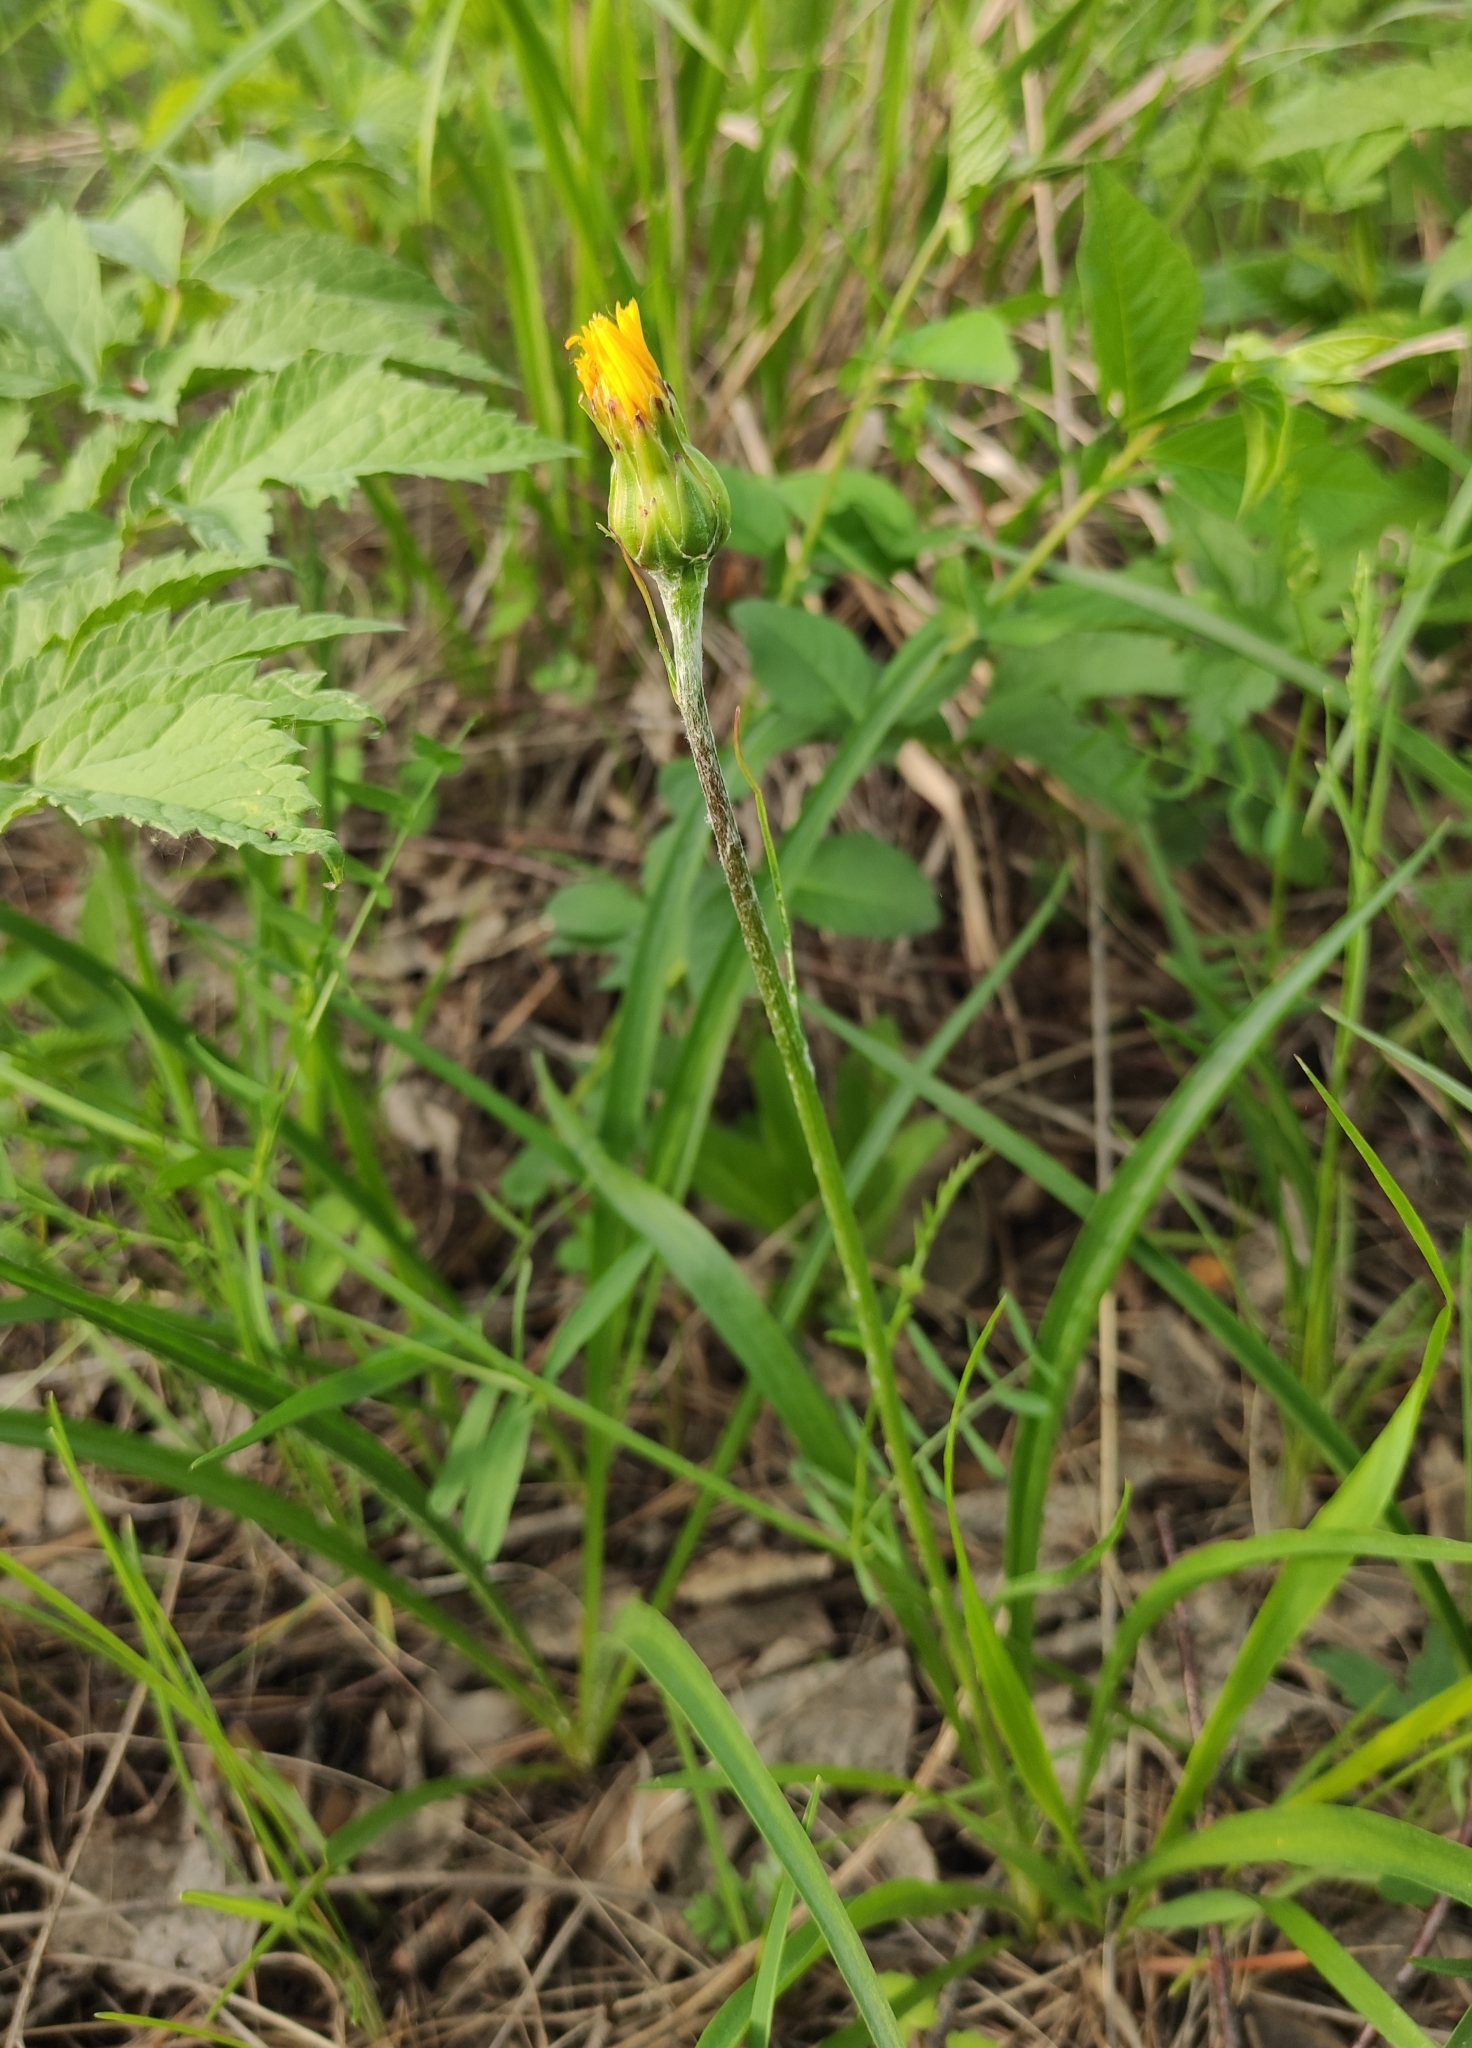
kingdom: Plantae
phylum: Tracheophyta
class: Magnoliopsida
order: Asterales
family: Asteraceae
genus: Scorzonera
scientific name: Scorzonera radiata
